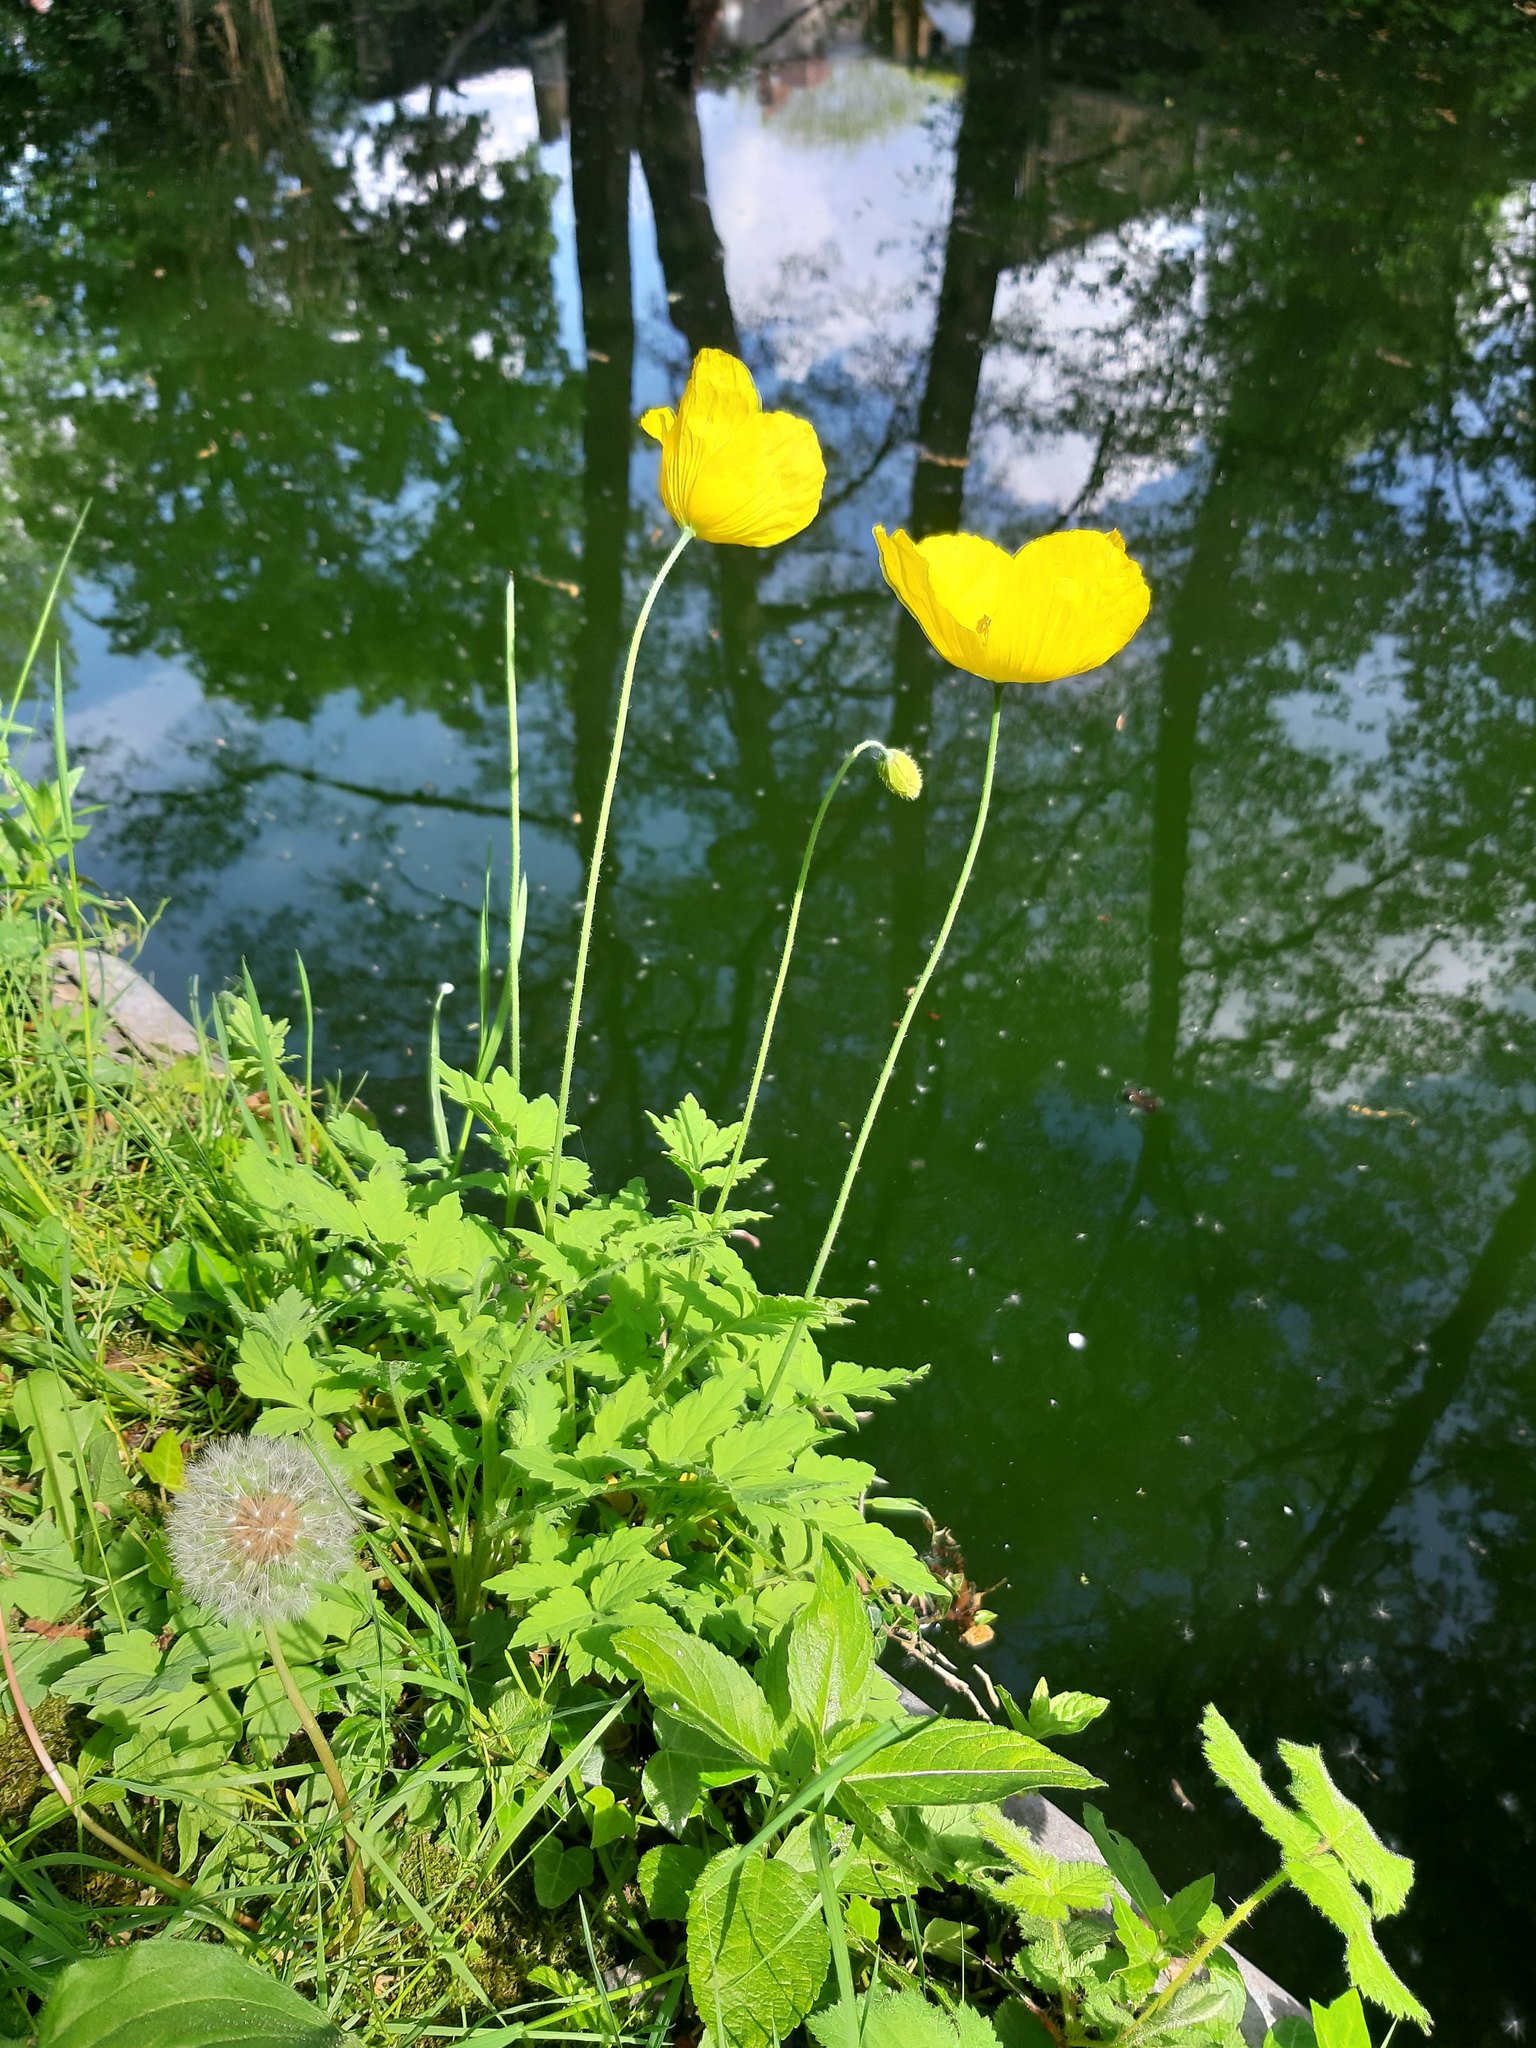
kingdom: Plantae
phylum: Tracheophyta
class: Magnoliopsida
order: Ranunculales
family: Papaveraceae
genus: Papaver
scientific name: Papaver cambricum
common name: Poppy
